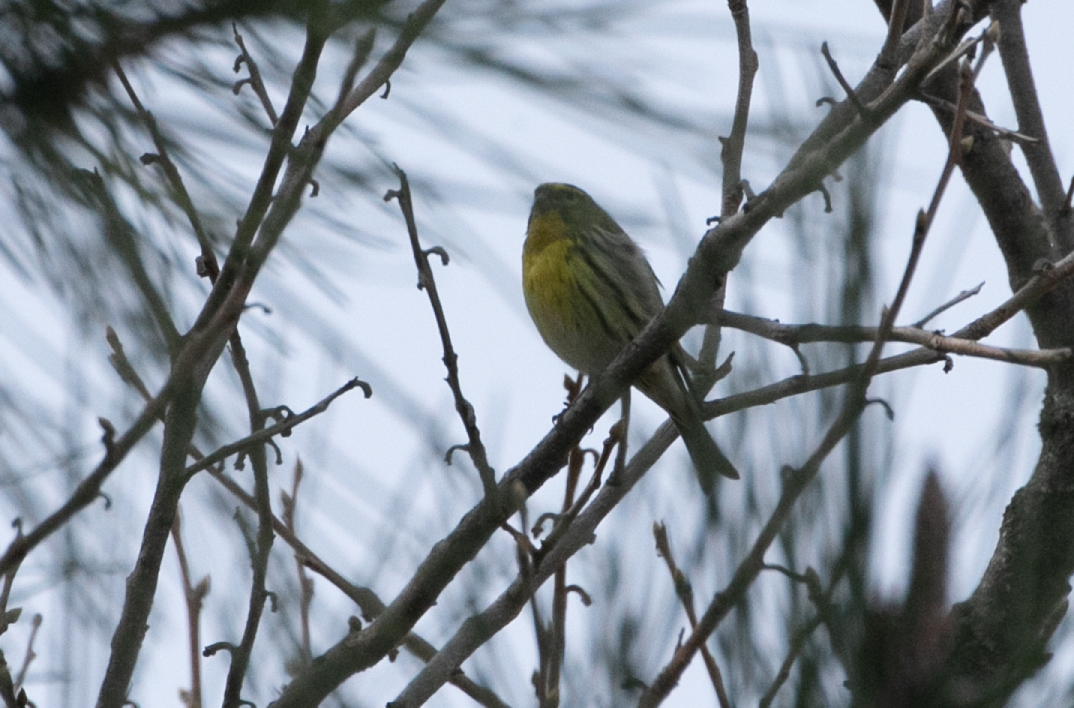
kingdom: Animalia
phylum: Chordata
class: Aves
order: Passeriformes
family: Fringillidae
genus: Serinus
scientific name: Serinus serinus
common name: European serin
